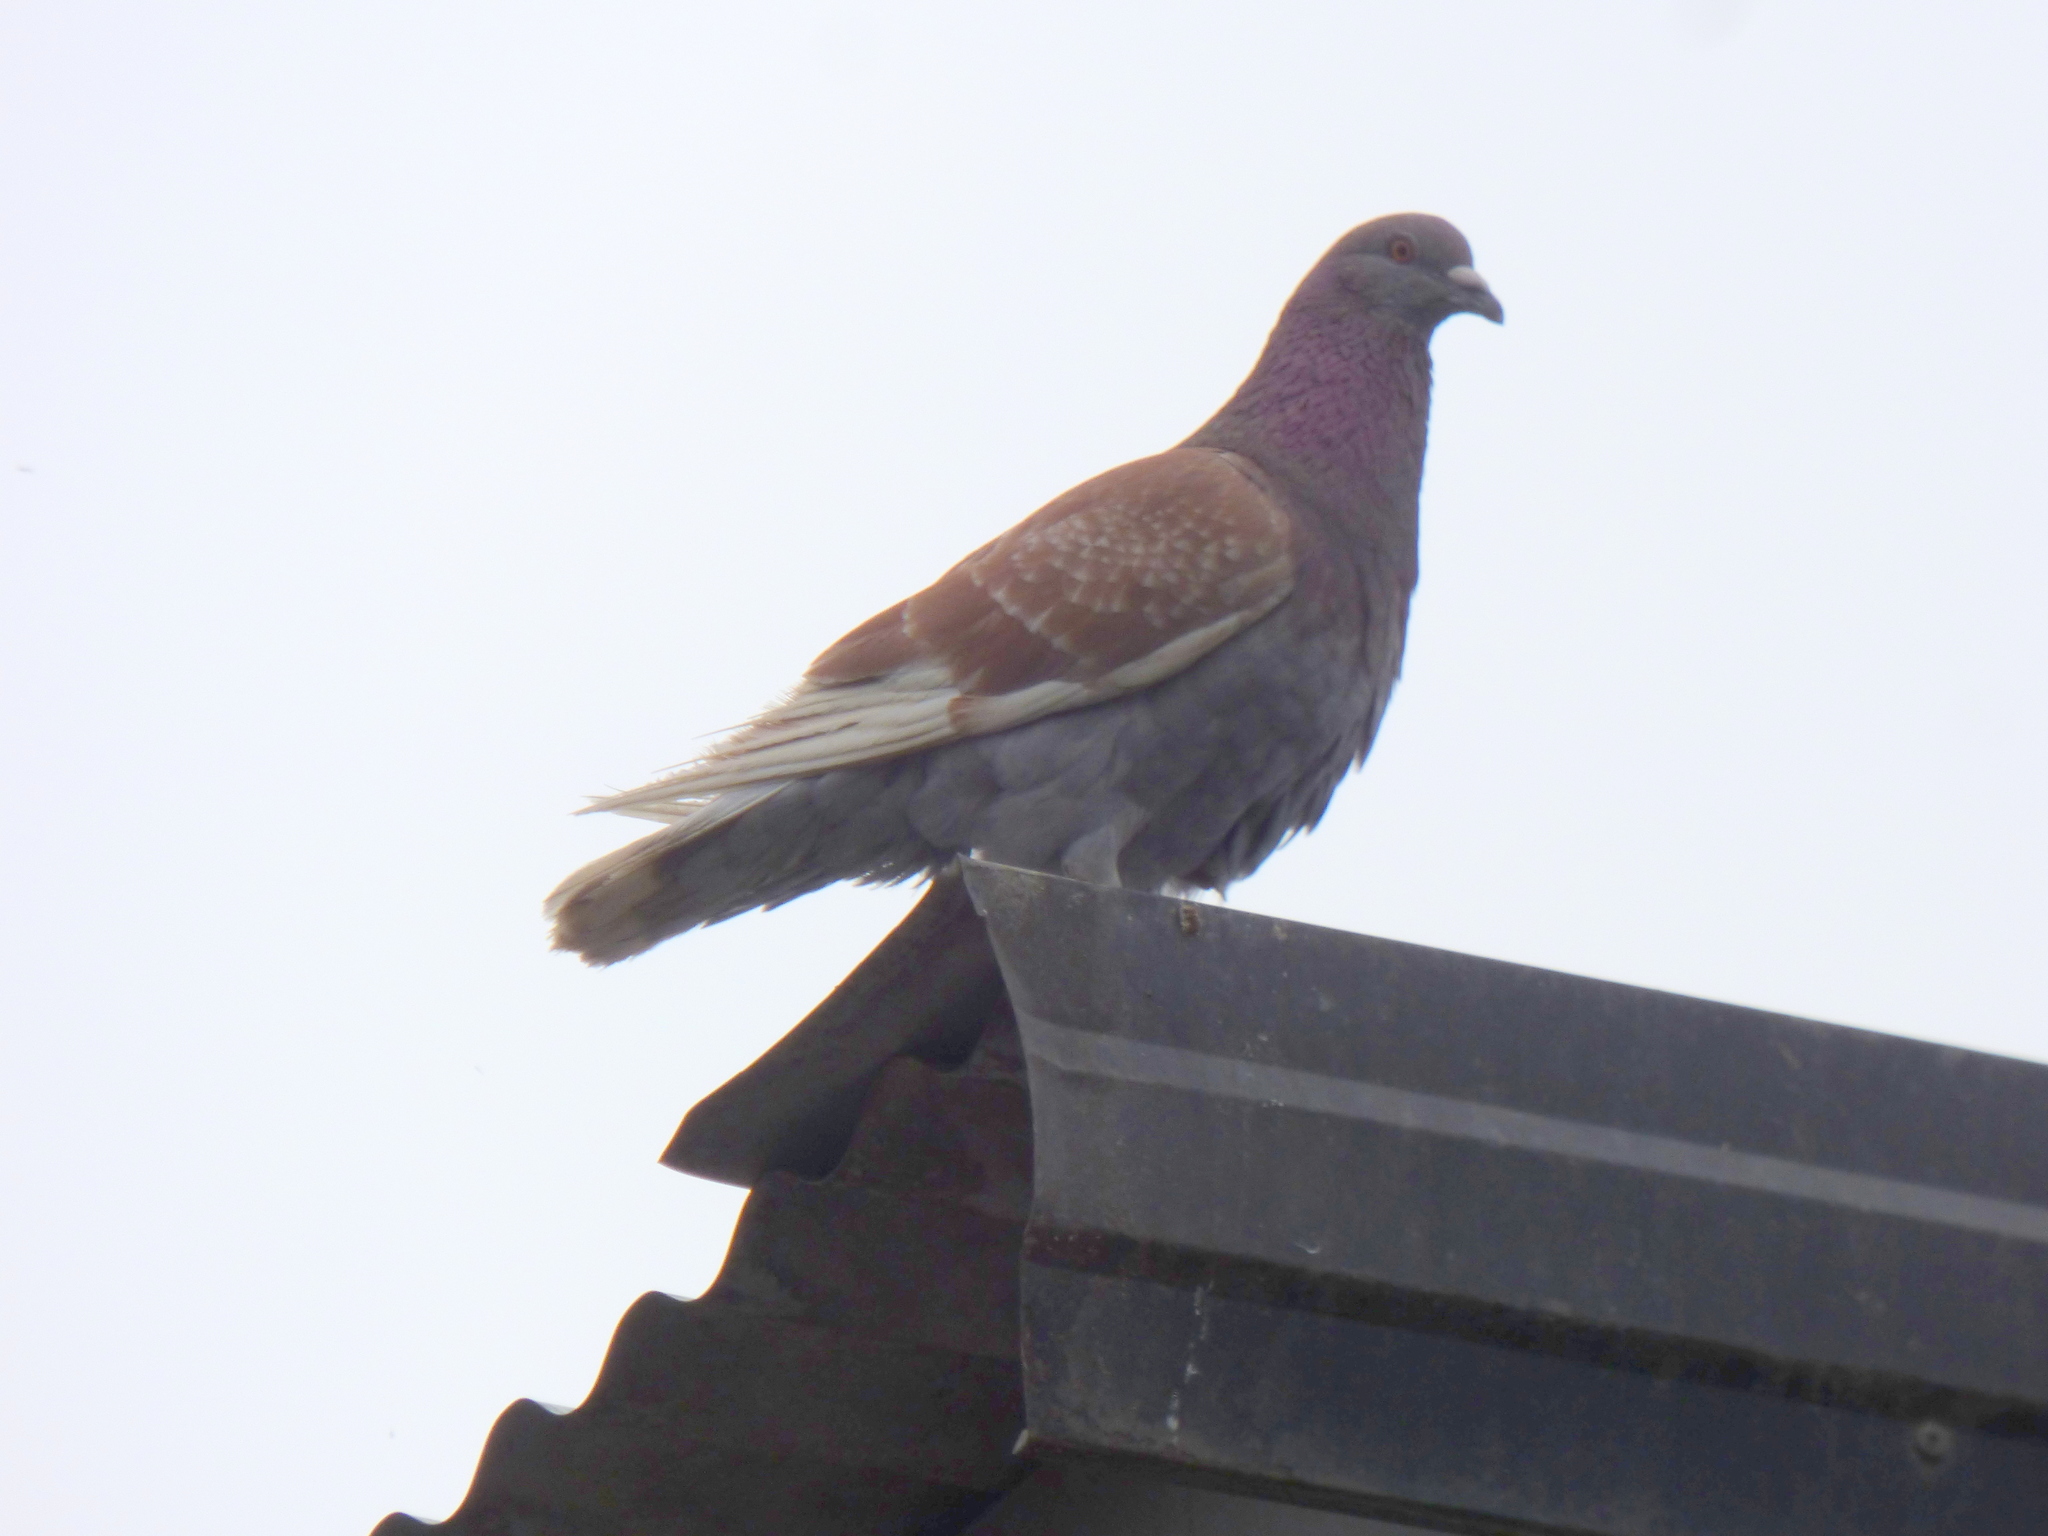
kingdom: Animalia
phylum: Chordata
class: Aves
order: Columbiformes
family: Columbidae
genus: Columba
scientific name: Columba livia
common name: Rock pigeon
